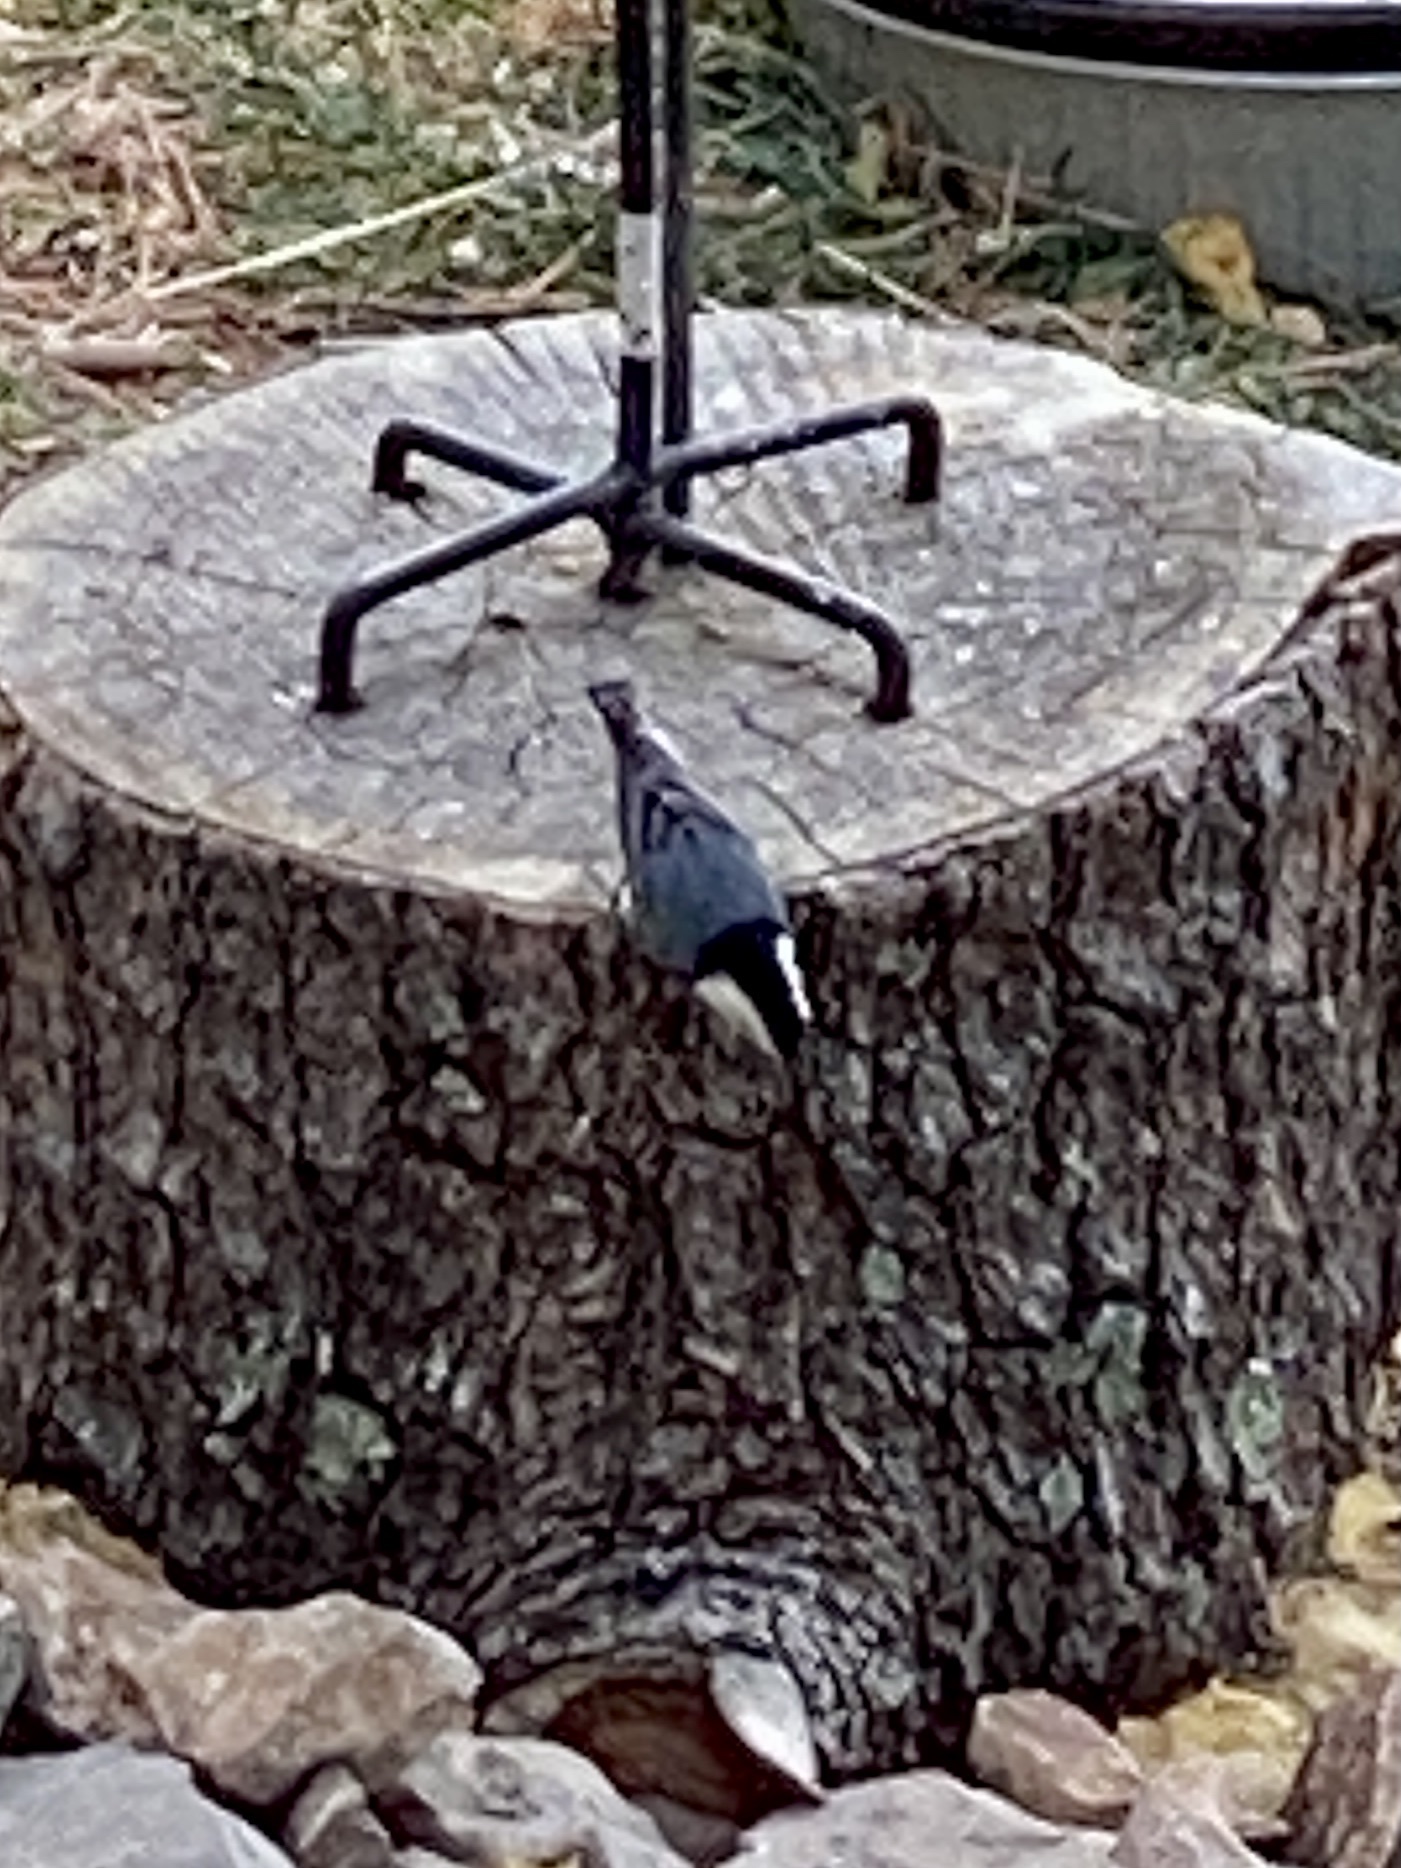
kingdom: Animalia
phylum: Chordata
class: Aves
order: Passeriformes
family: Sittidae
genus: Sitta
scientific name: Sitta carolinensis
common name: White-breasted nuthatch
